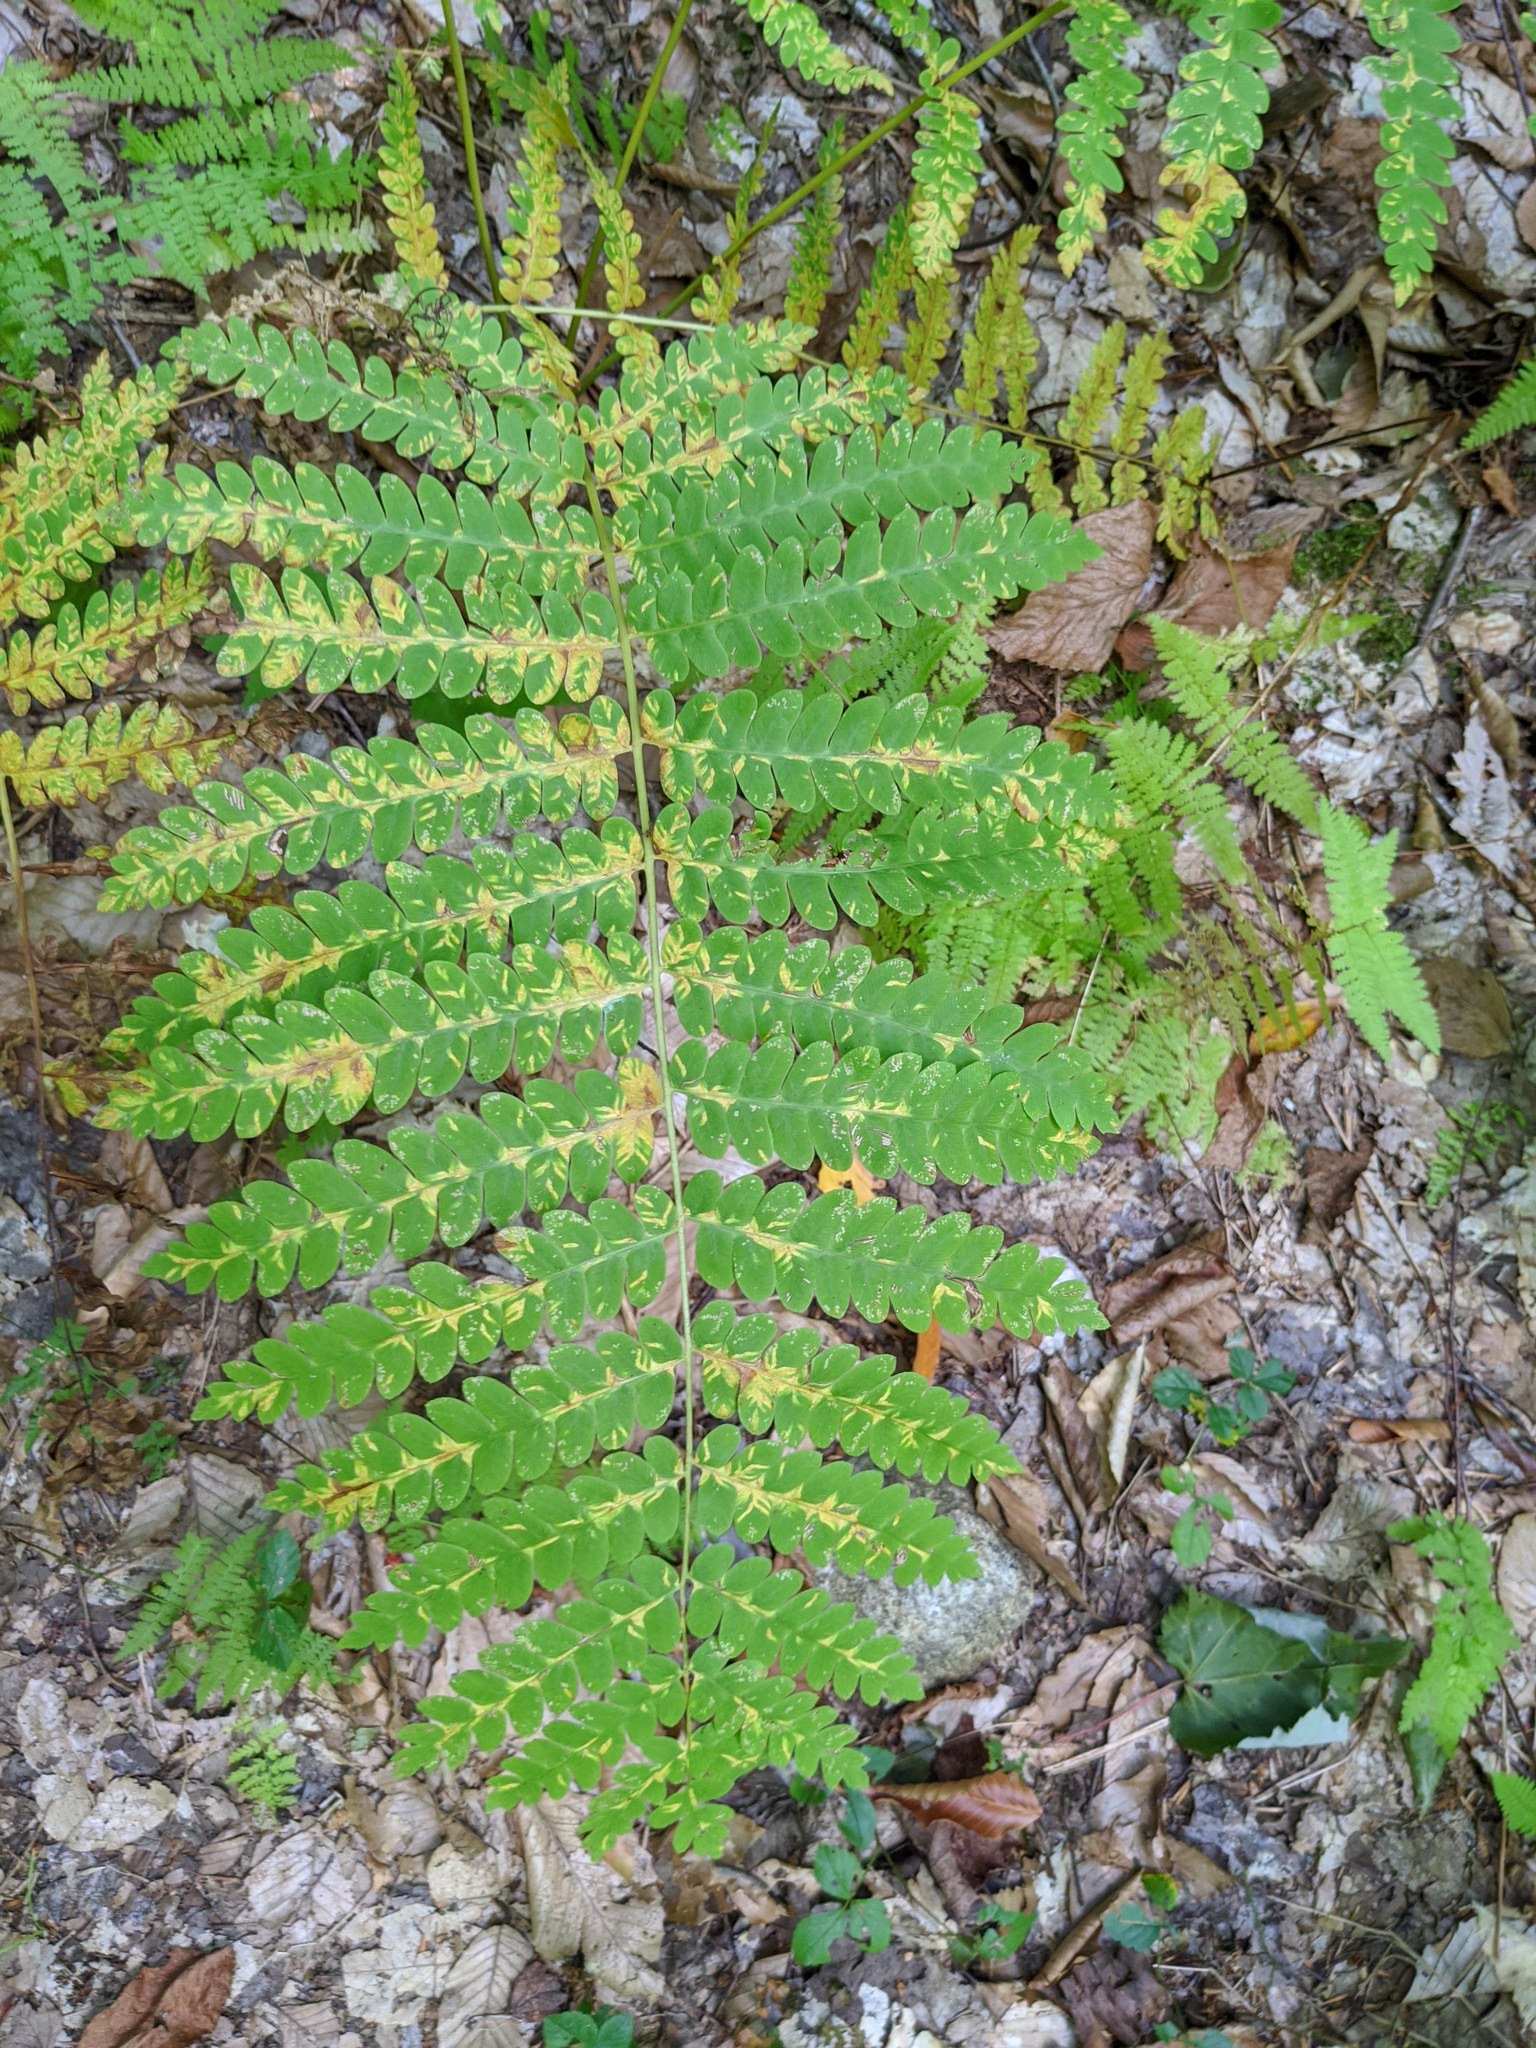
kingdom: Plantae
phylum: Tracheophyta
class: Polypodiopsida
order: Osmundales
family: Osmundaceae
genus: Claytosmunda
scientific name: Claytosmunda claytoniana
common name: Clayton's fern
